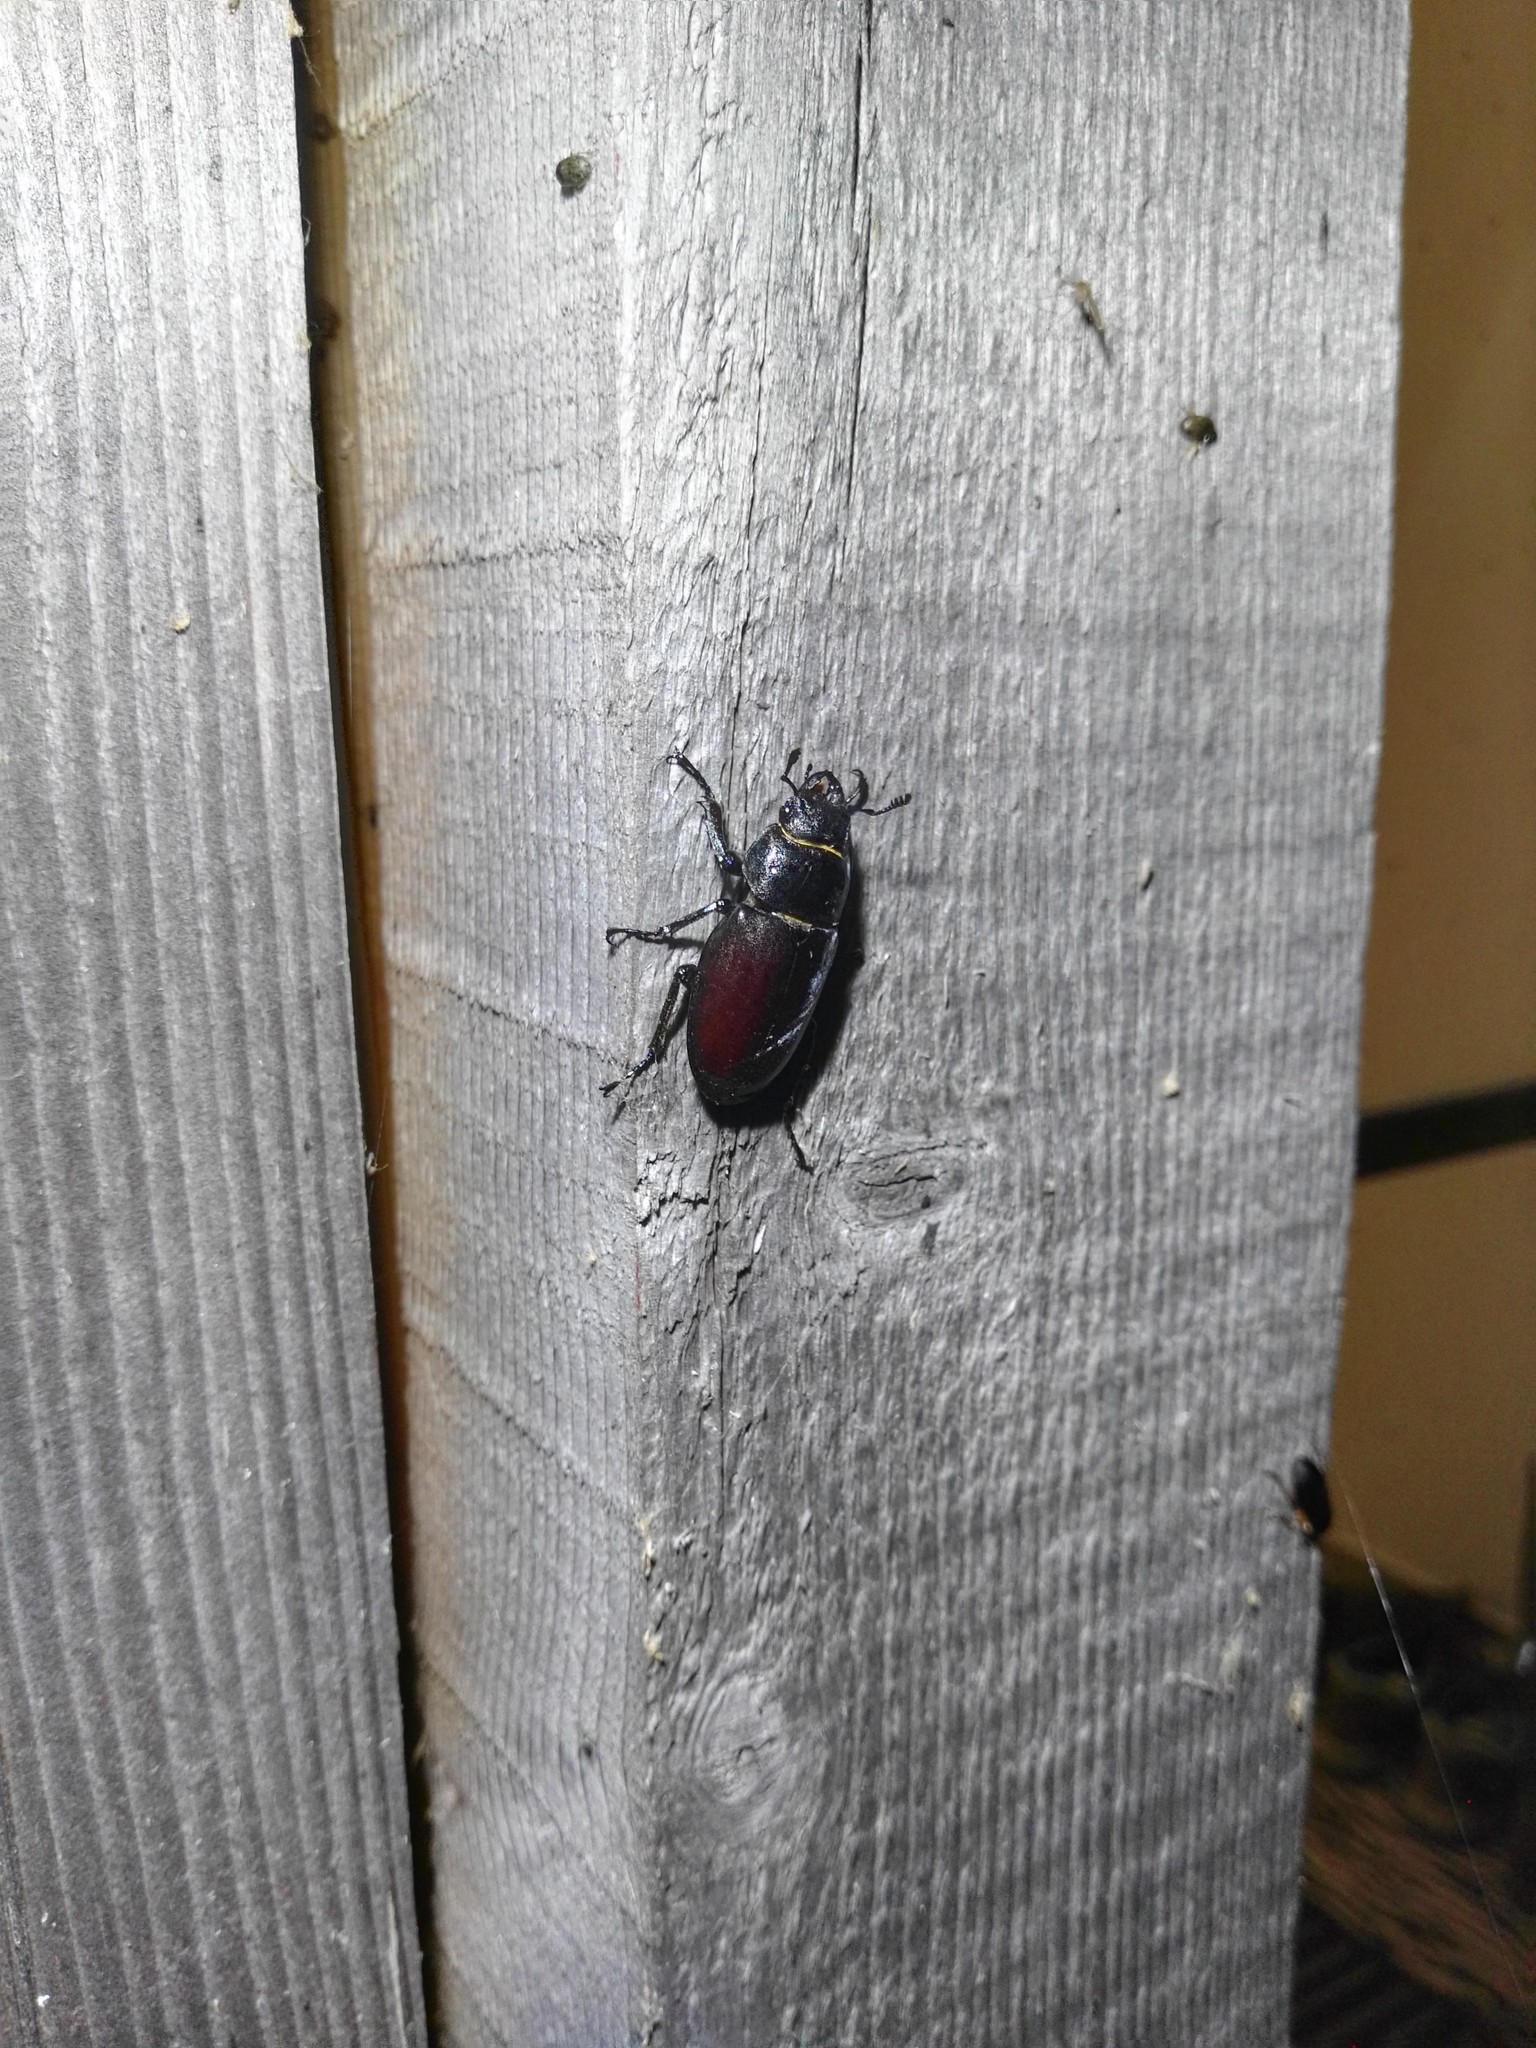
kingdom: Animalia
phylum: Arthropoda
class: Insecta
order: Coleoptera
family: Lucanidae
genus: Lucanus
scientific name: Lucanus cervus
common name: Stag beetle
